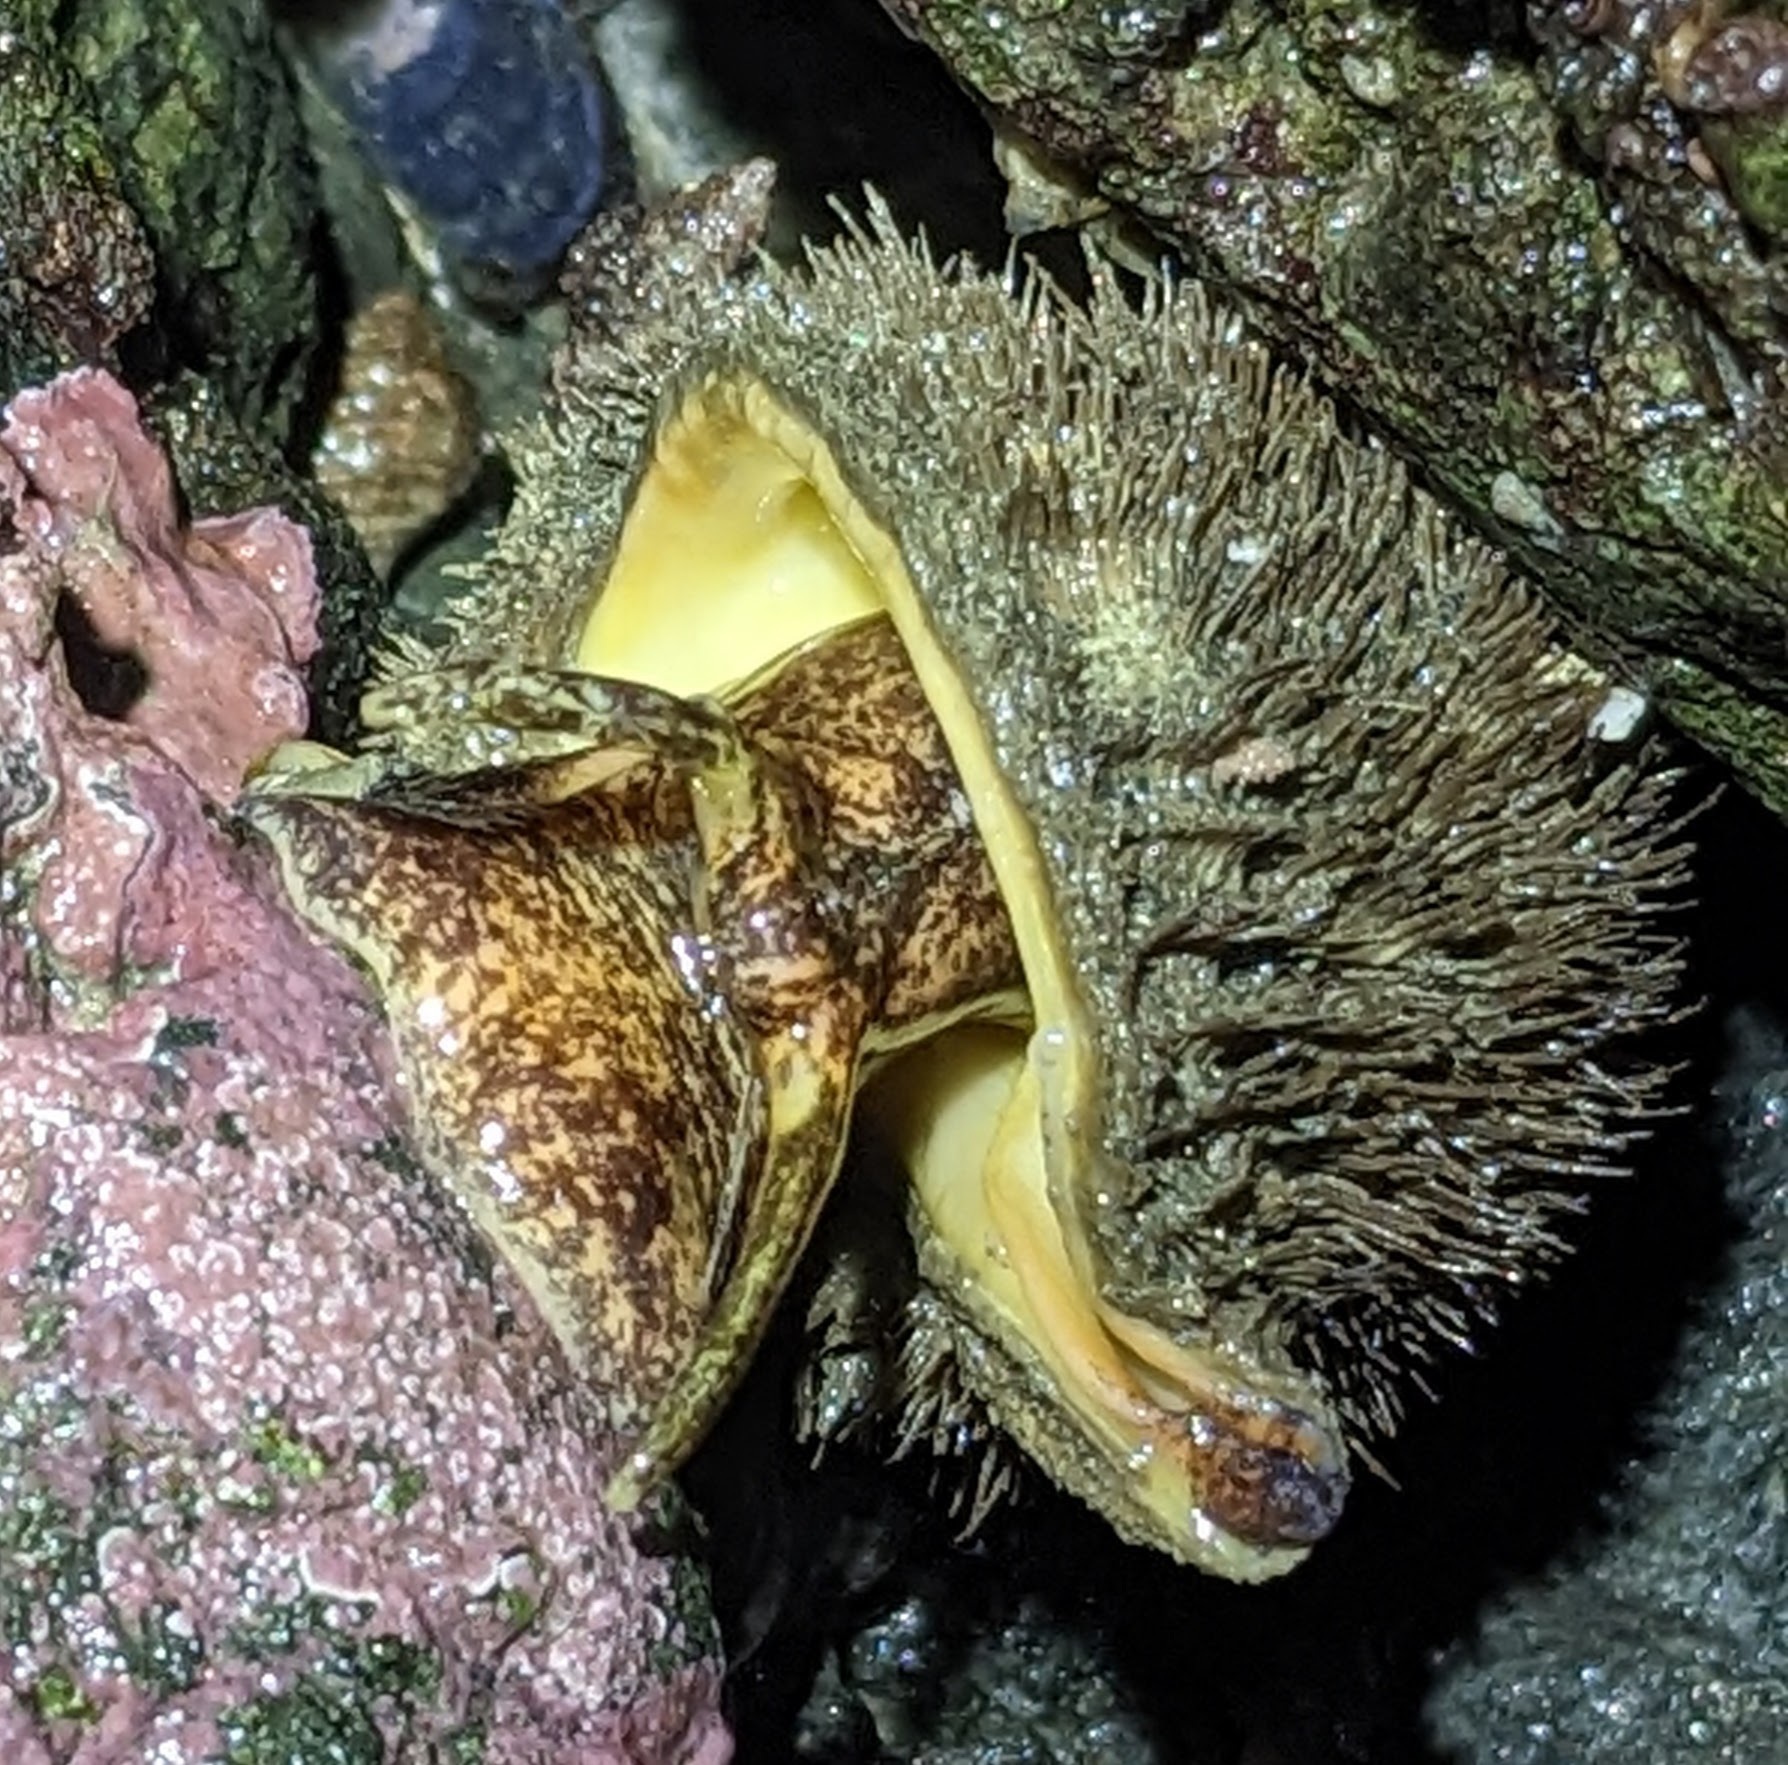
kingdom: Animalia
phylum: Mollusca
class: Gastropoda
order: Littorinimorpha
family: Cymatiidae
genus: Fusitriton
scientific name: Fusitriton oregonensis
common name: Oregon hairy triton
